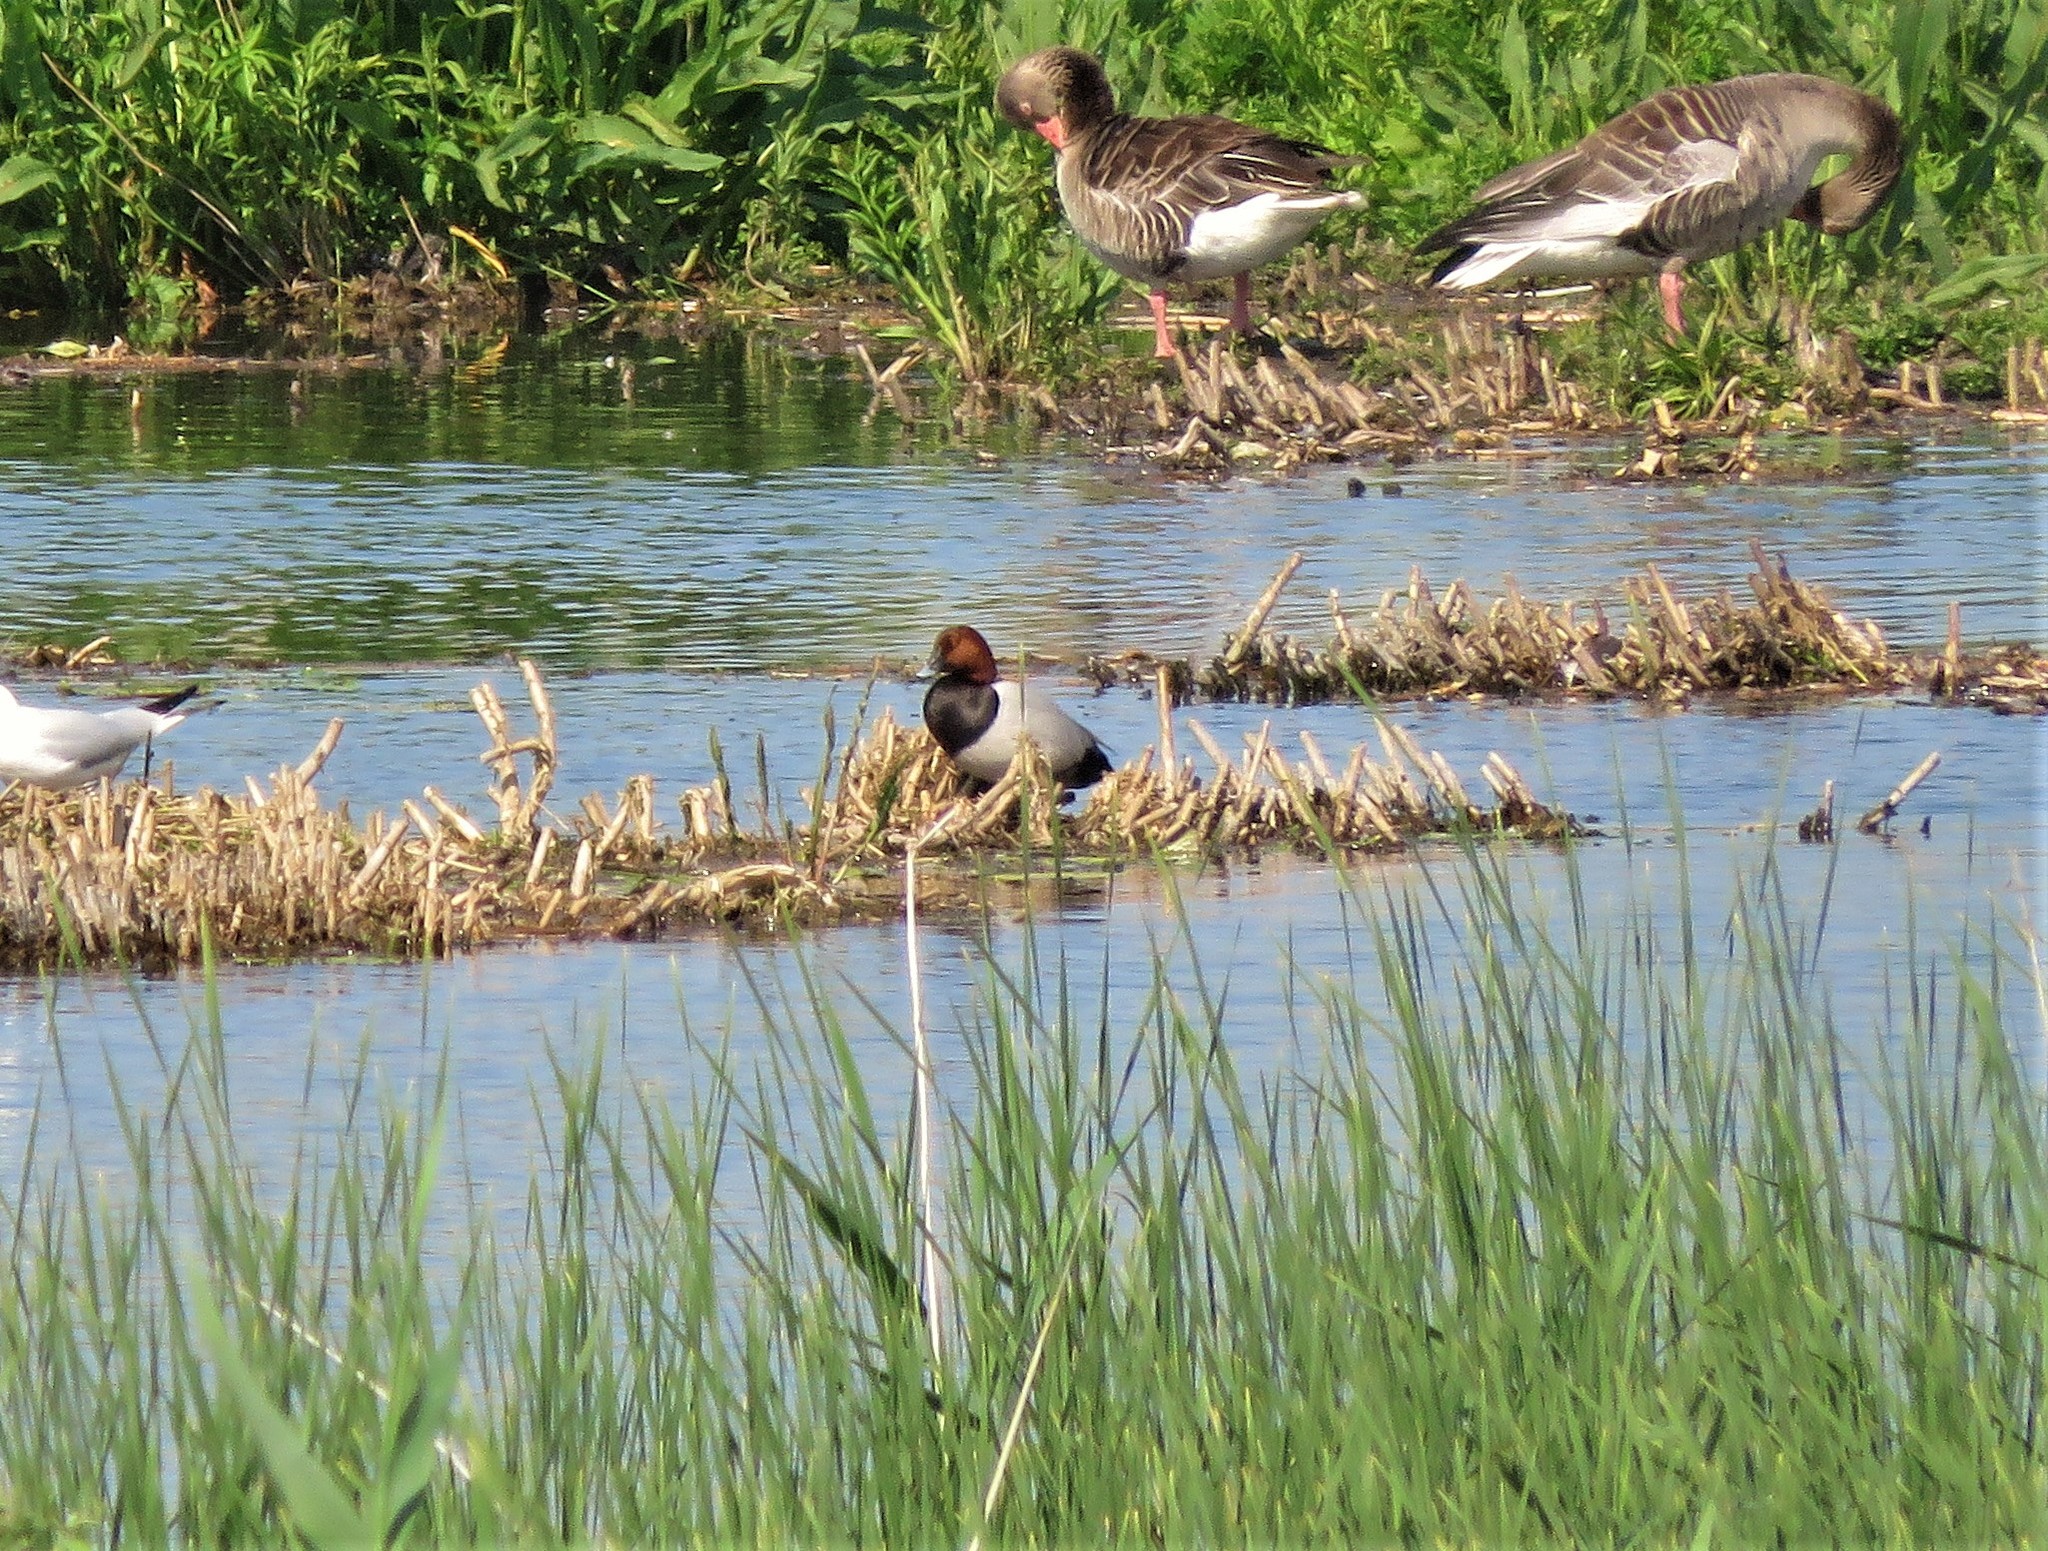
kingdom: Animalia
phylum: Chordata
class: Aves
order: Anseriformes
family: Anatidae
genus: Aythya
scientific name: Aythya ferina
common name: Common pochard
